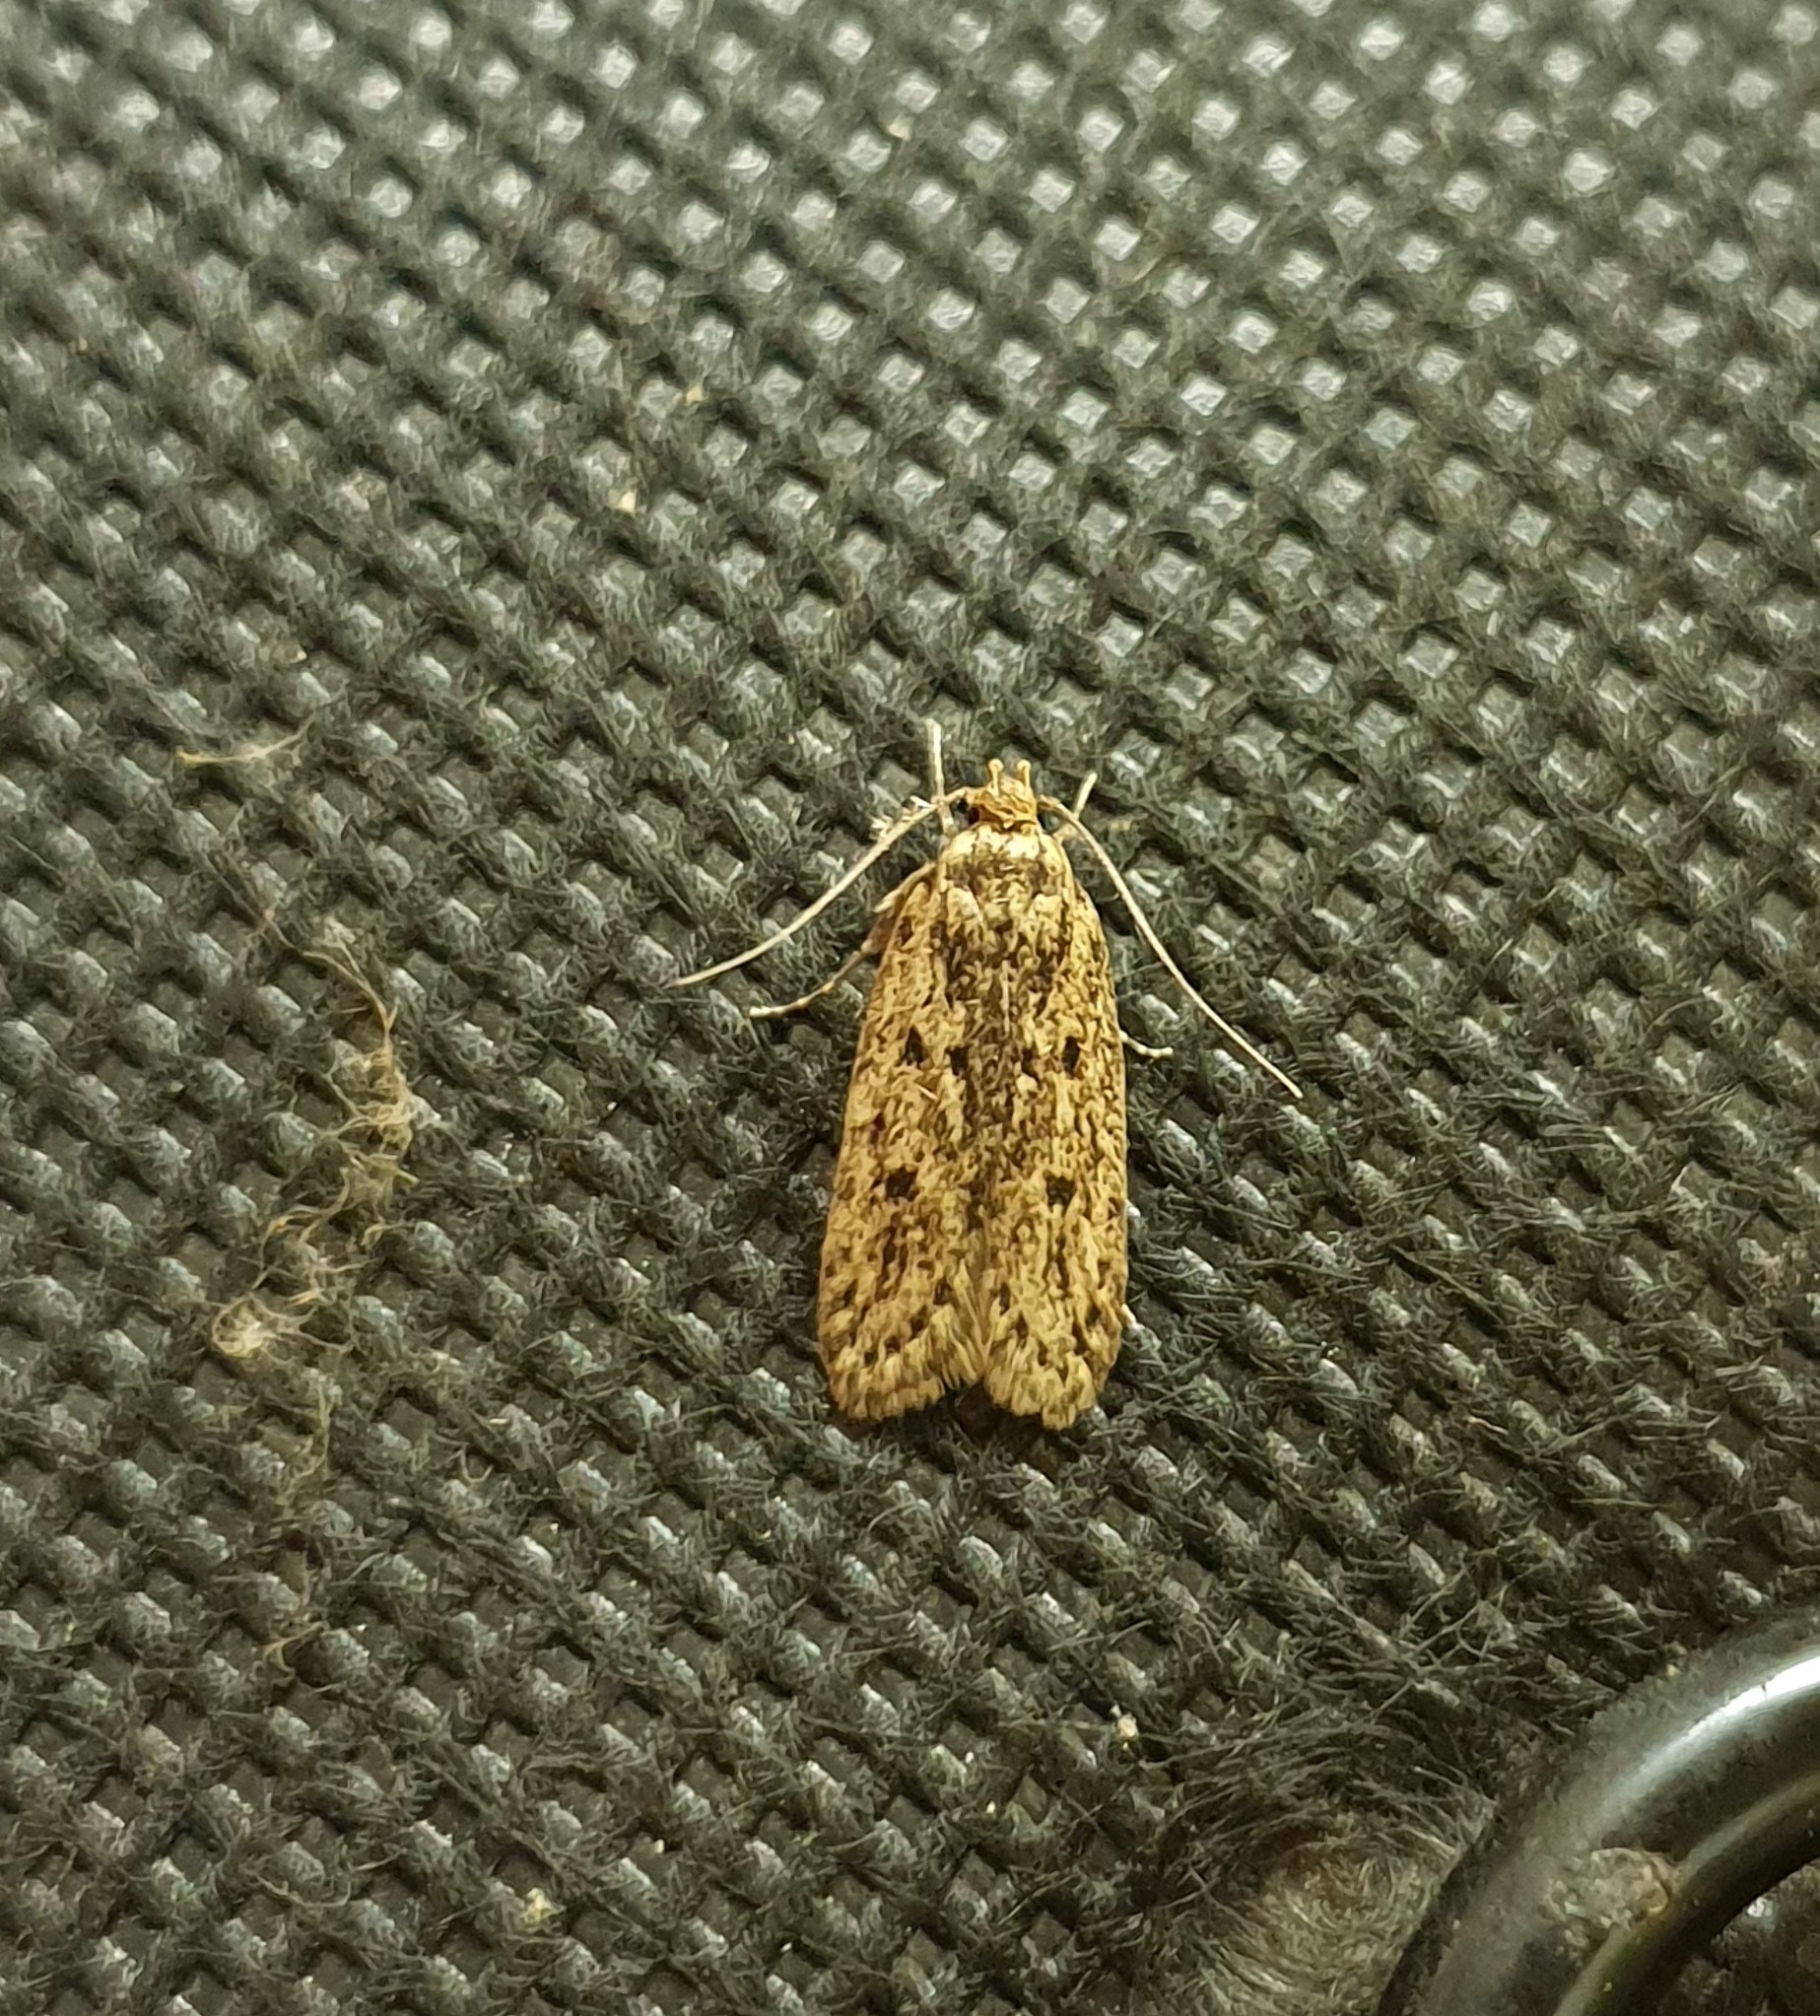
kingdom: Animalia
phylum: Arthropoda
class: Insecta
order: Lepidoptera
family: Oecophoridae
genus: Hofmannophila
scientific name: Hofmannophila pseudospretella
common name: Brown house moth
